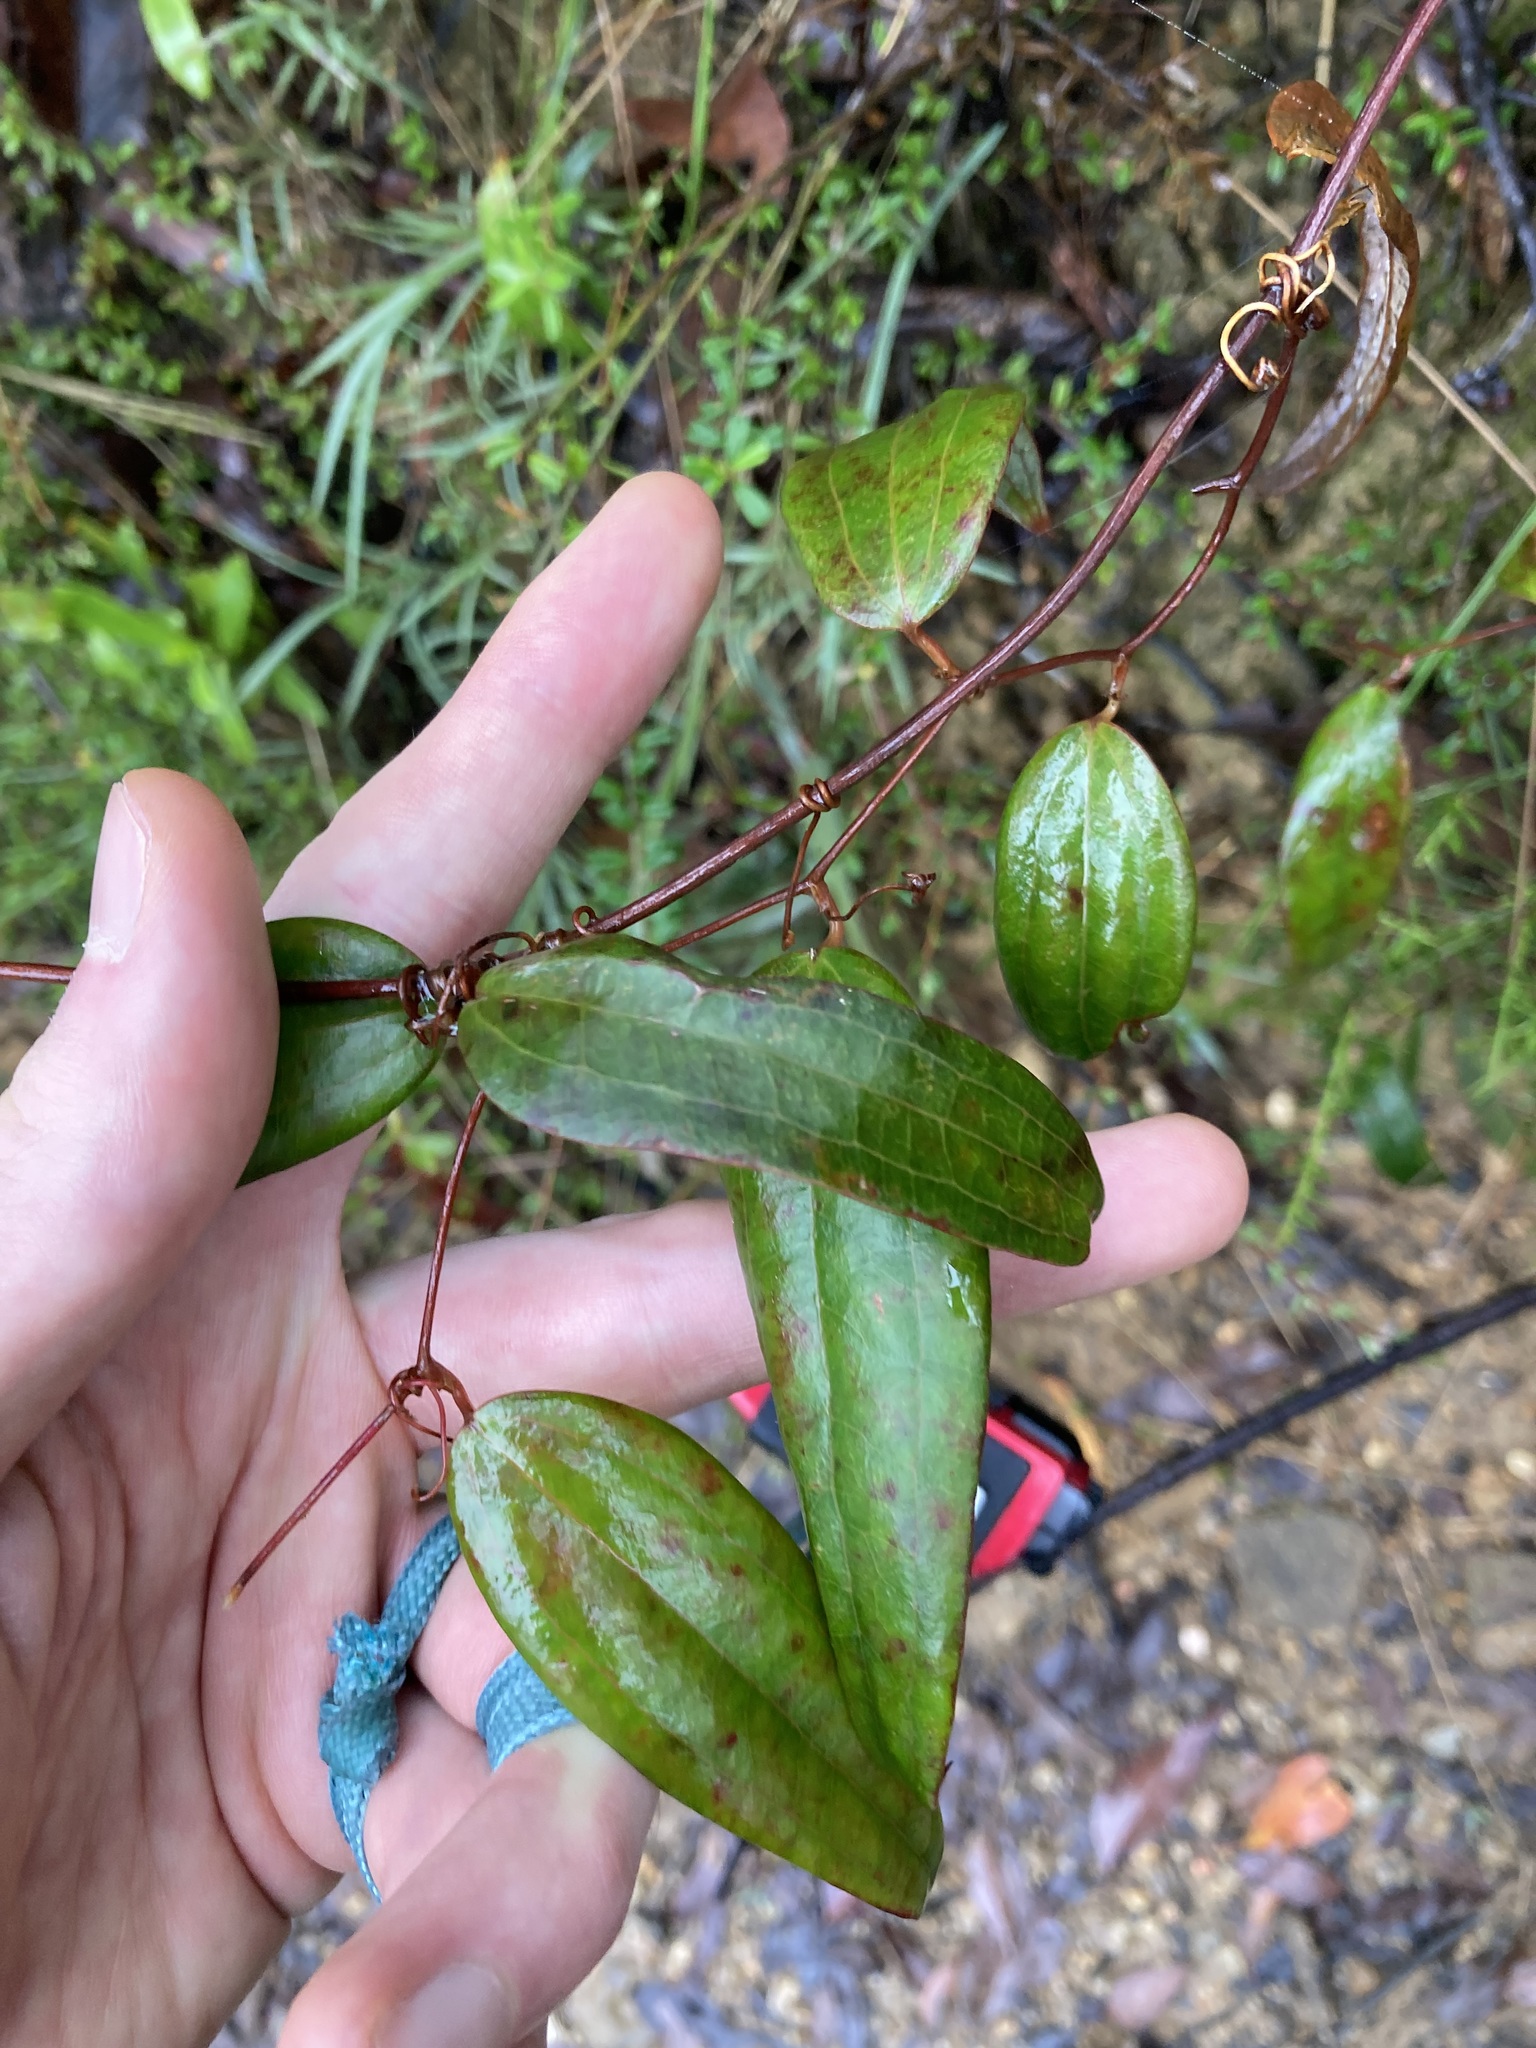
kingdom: Plantae
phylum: Tracheophyta
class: Liliopsida
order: Liliales
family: Smilacaceae
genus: Smilax
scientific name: Smilax glyciphylla
